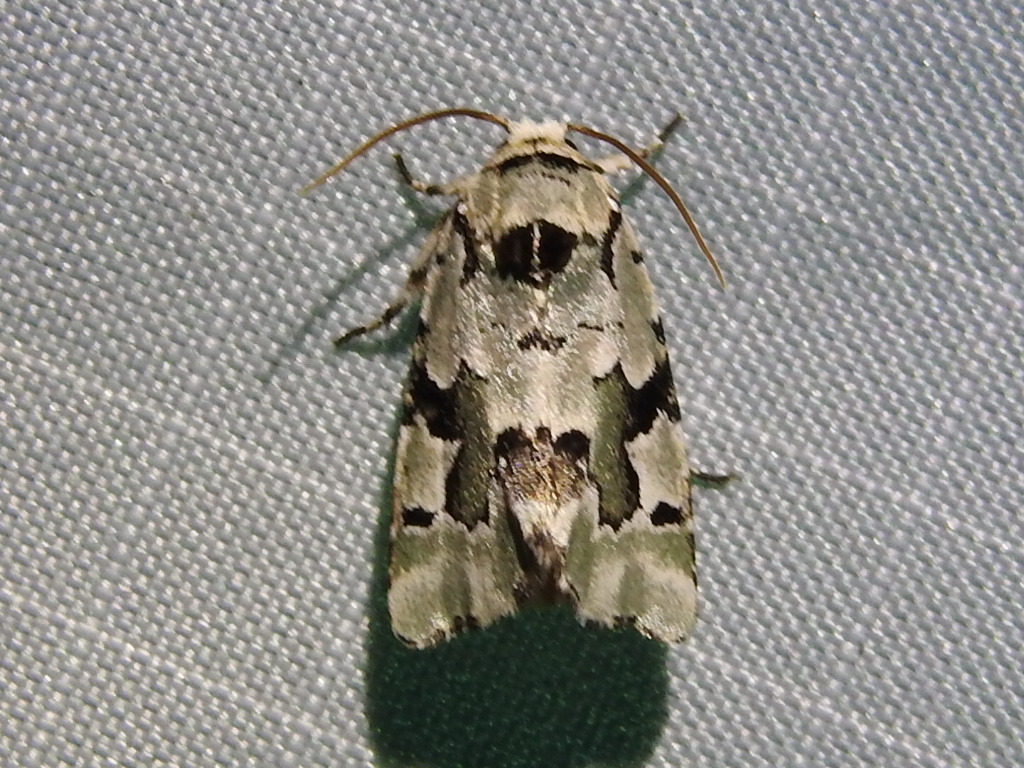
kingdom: Animalia
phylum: Arthropoda
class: Insecta
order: Lepidoptera
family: Noctuidae
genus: Emarginea
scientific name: Emarginea percara
